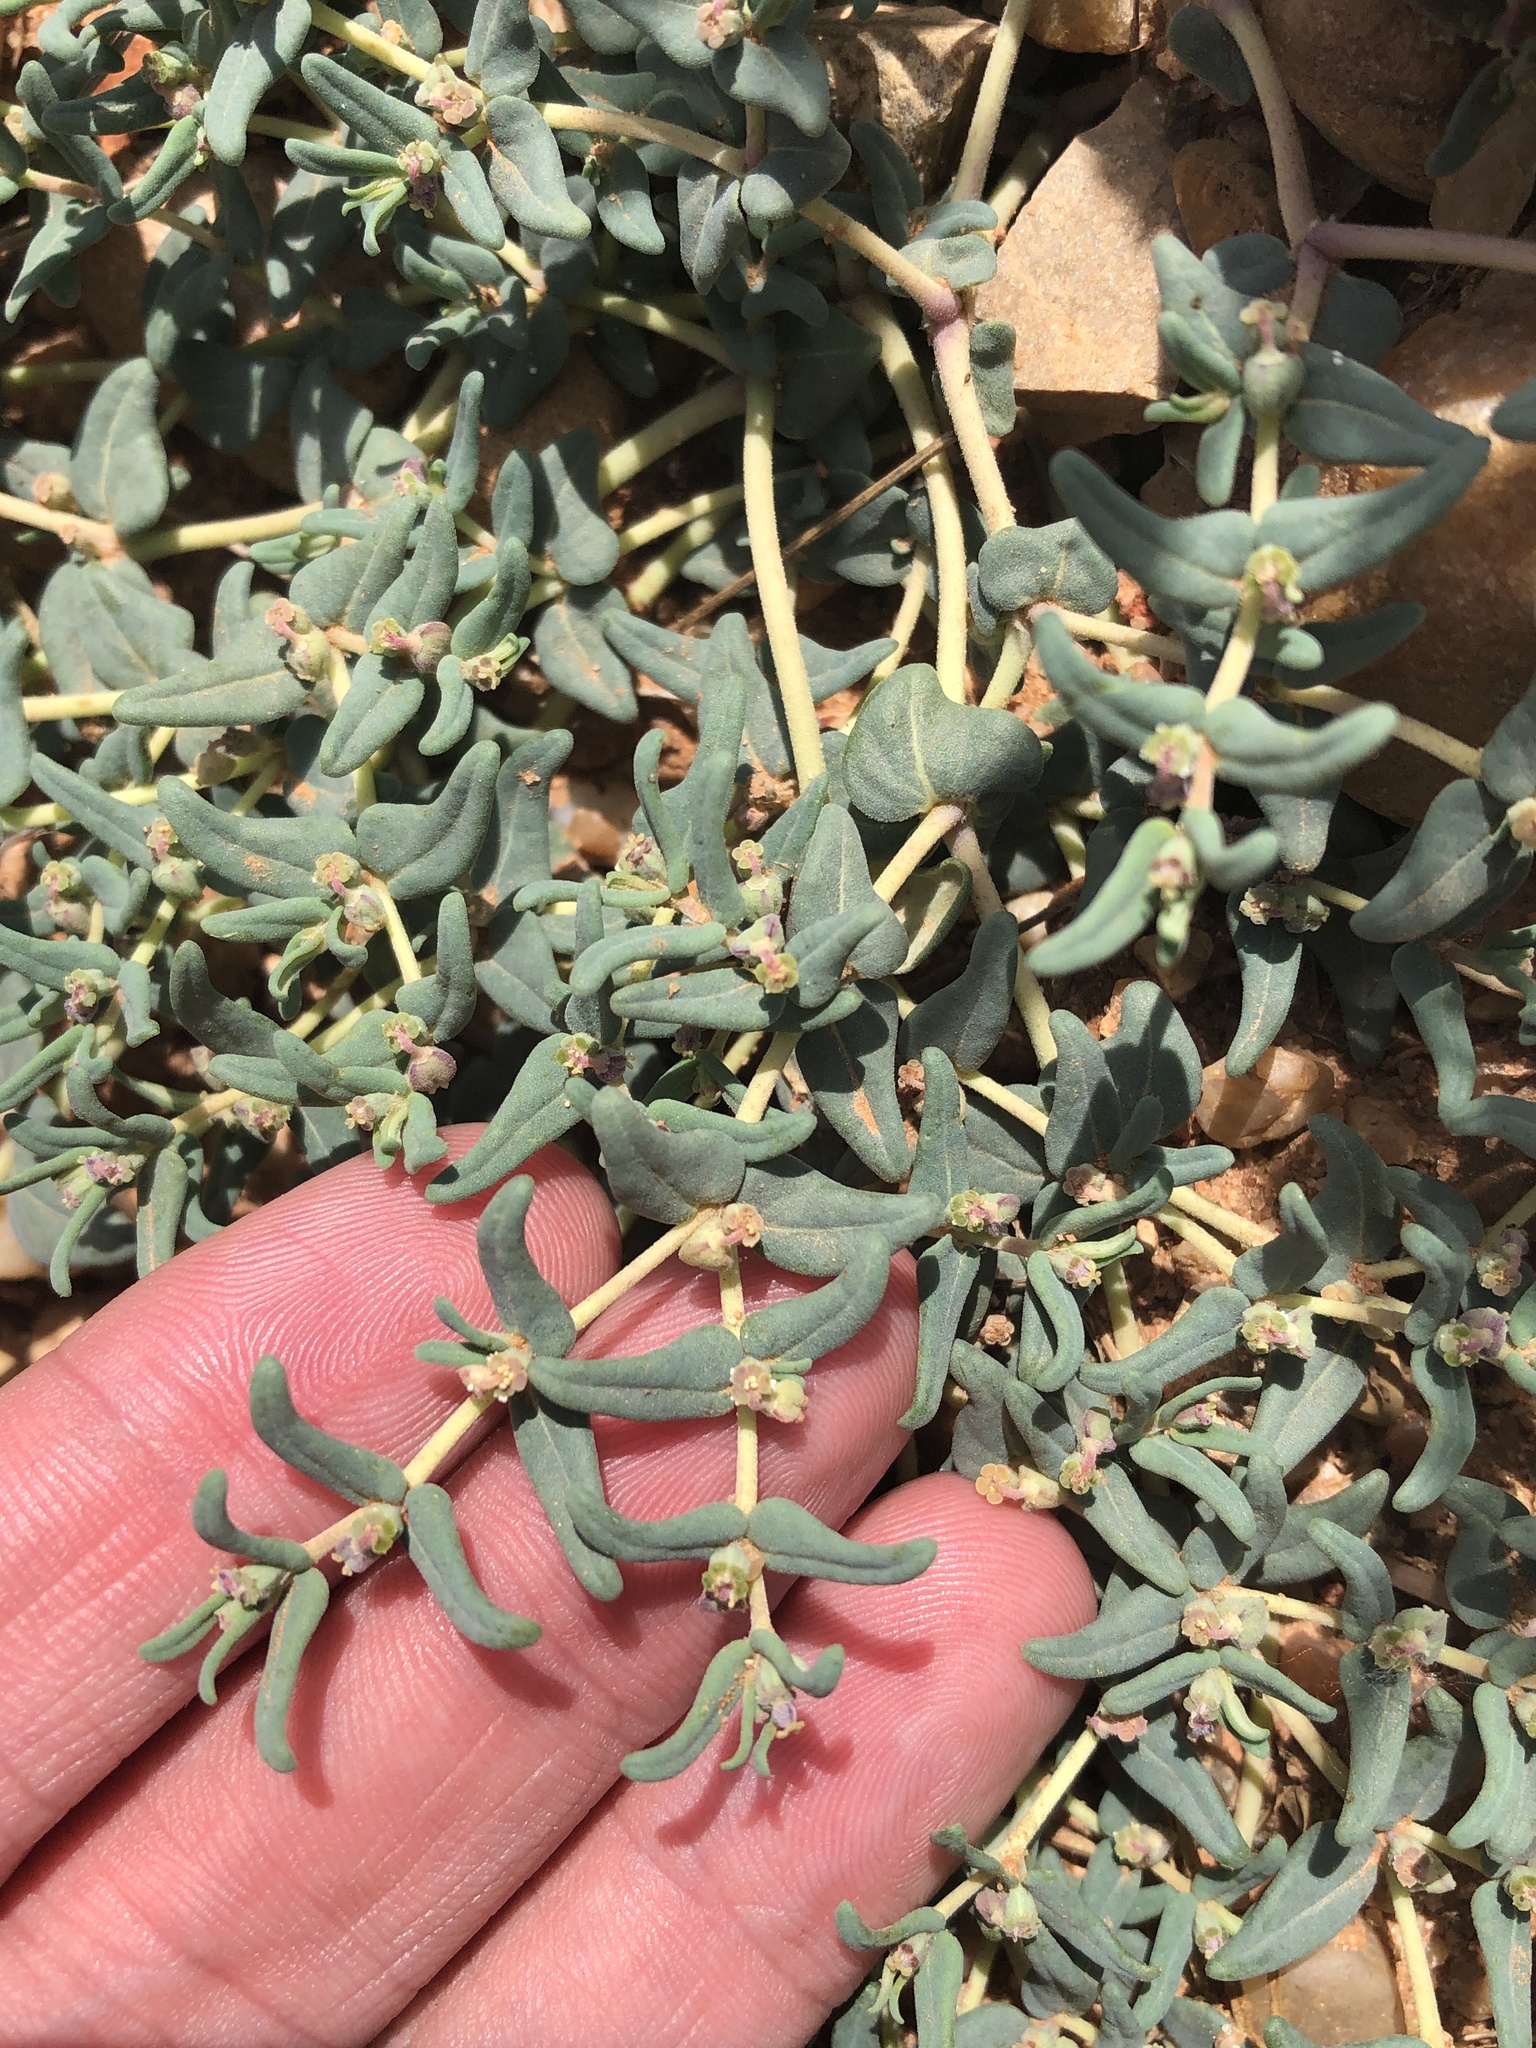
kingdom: Plantae
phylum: Tracheophyta
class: Magnoliopsida
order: Malpighiales
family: Euphorbiaceae
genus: Euphorbia
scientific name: Euphorbia lata
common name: Hoary euphorbia
